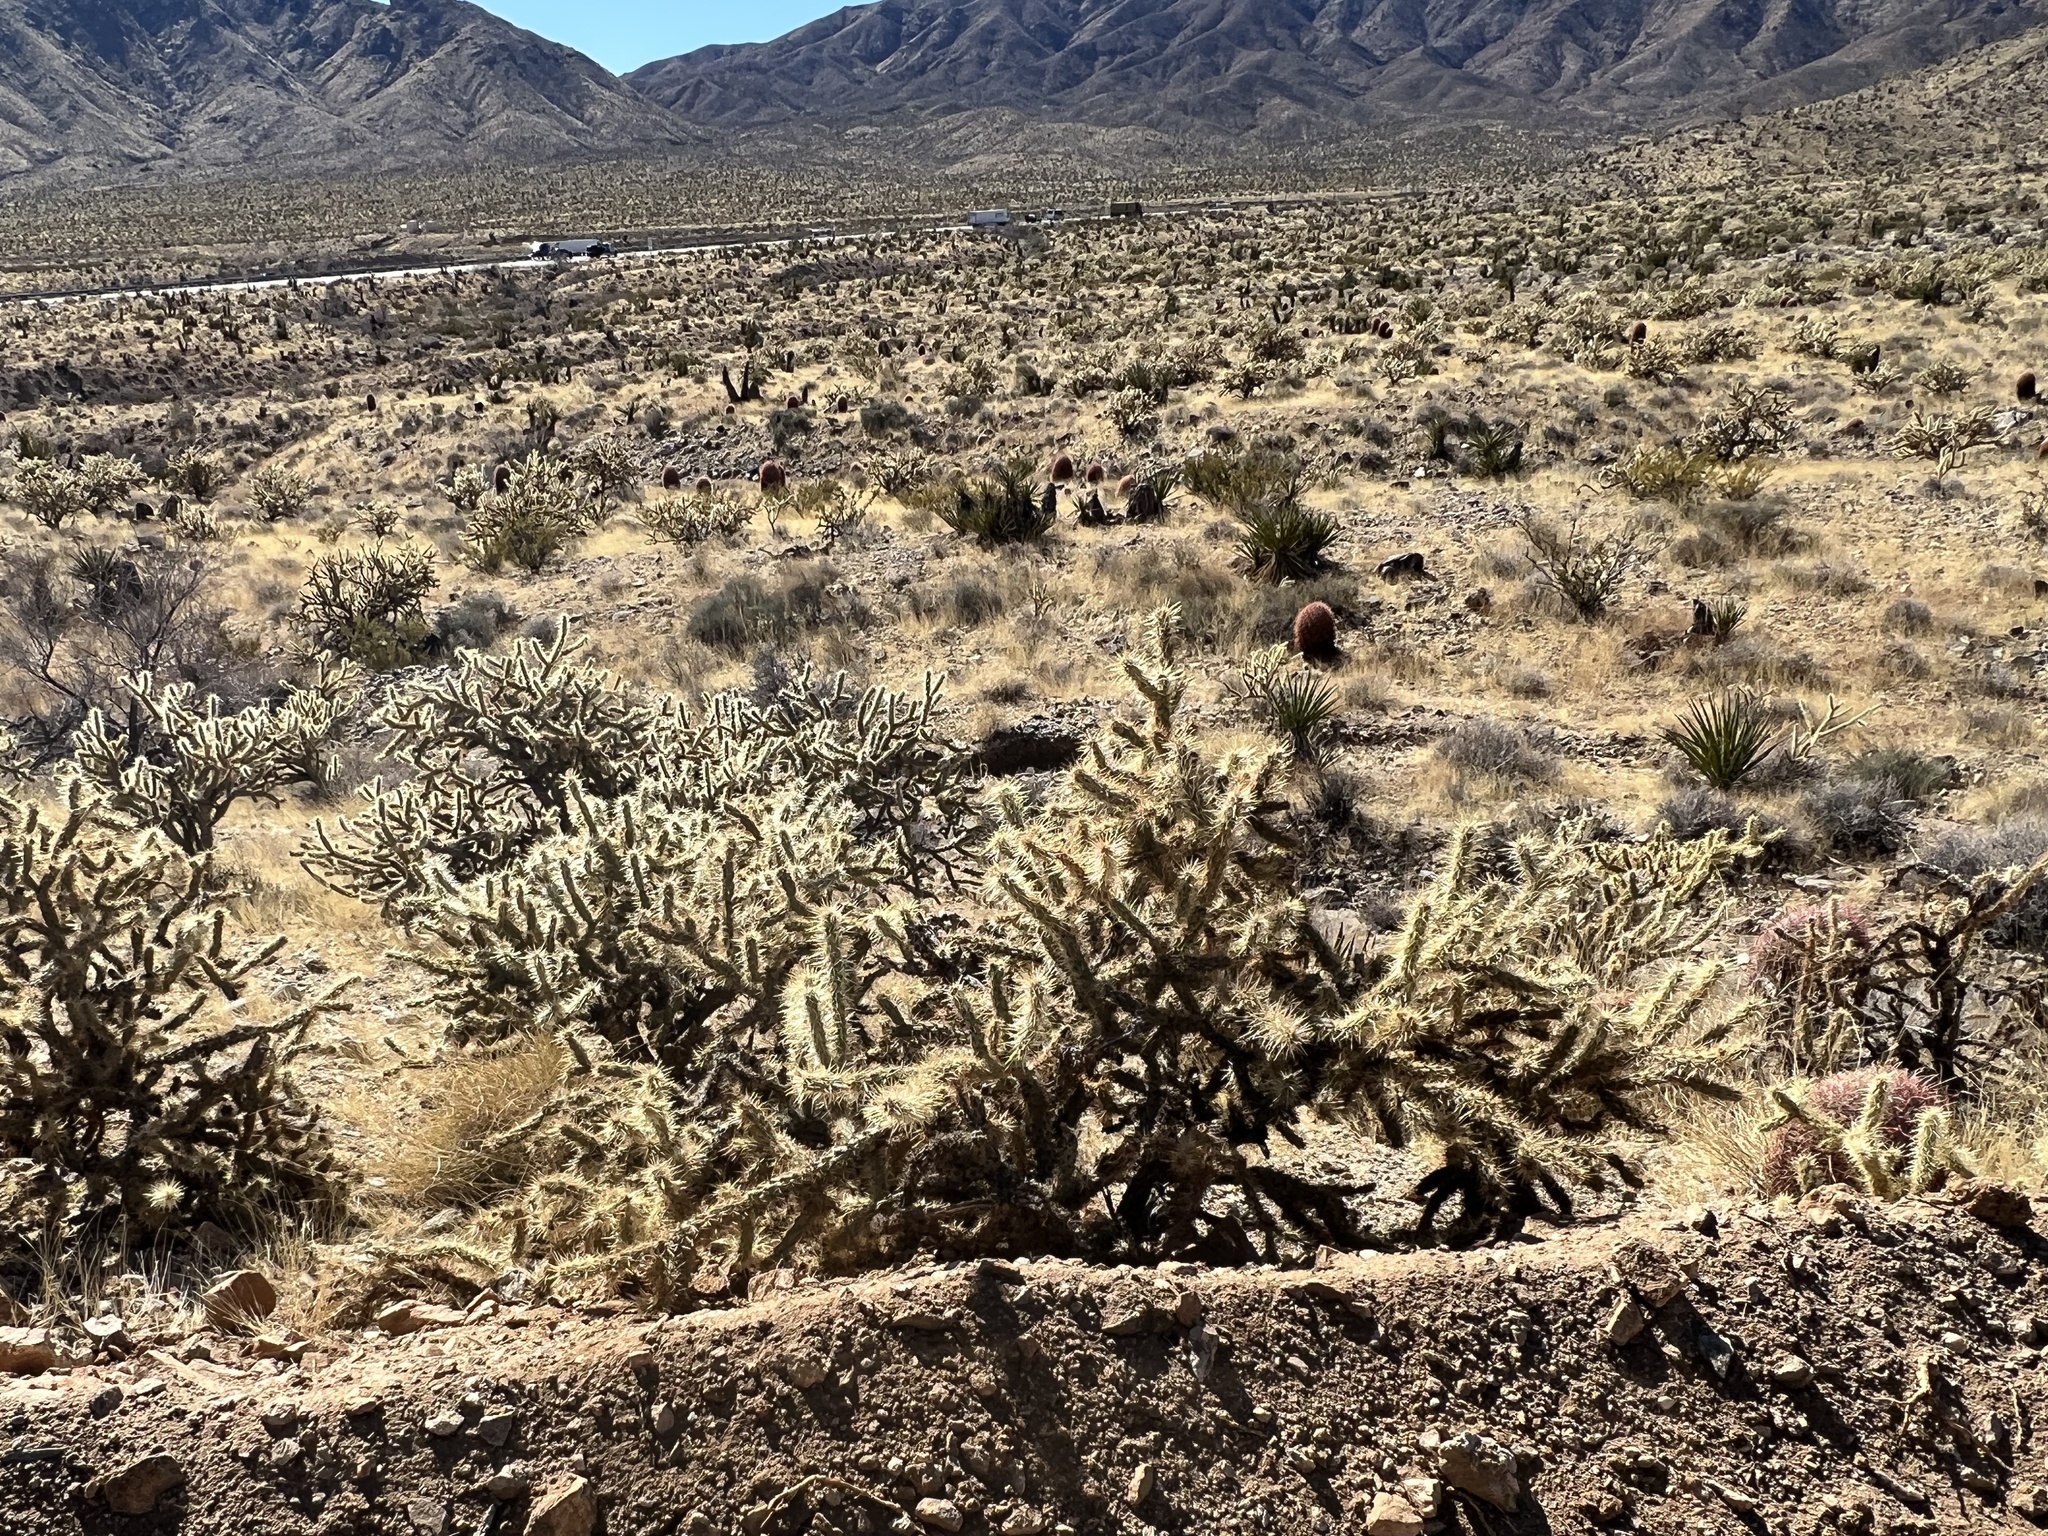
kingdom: Plantae
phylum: Tracheophyta
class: Magnoliopsida
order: Caryophyllales
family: Cactaceae
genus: Cylindropuntia
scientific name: Cylindropuntia acanthocarpa
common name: Buckhorn cholla
